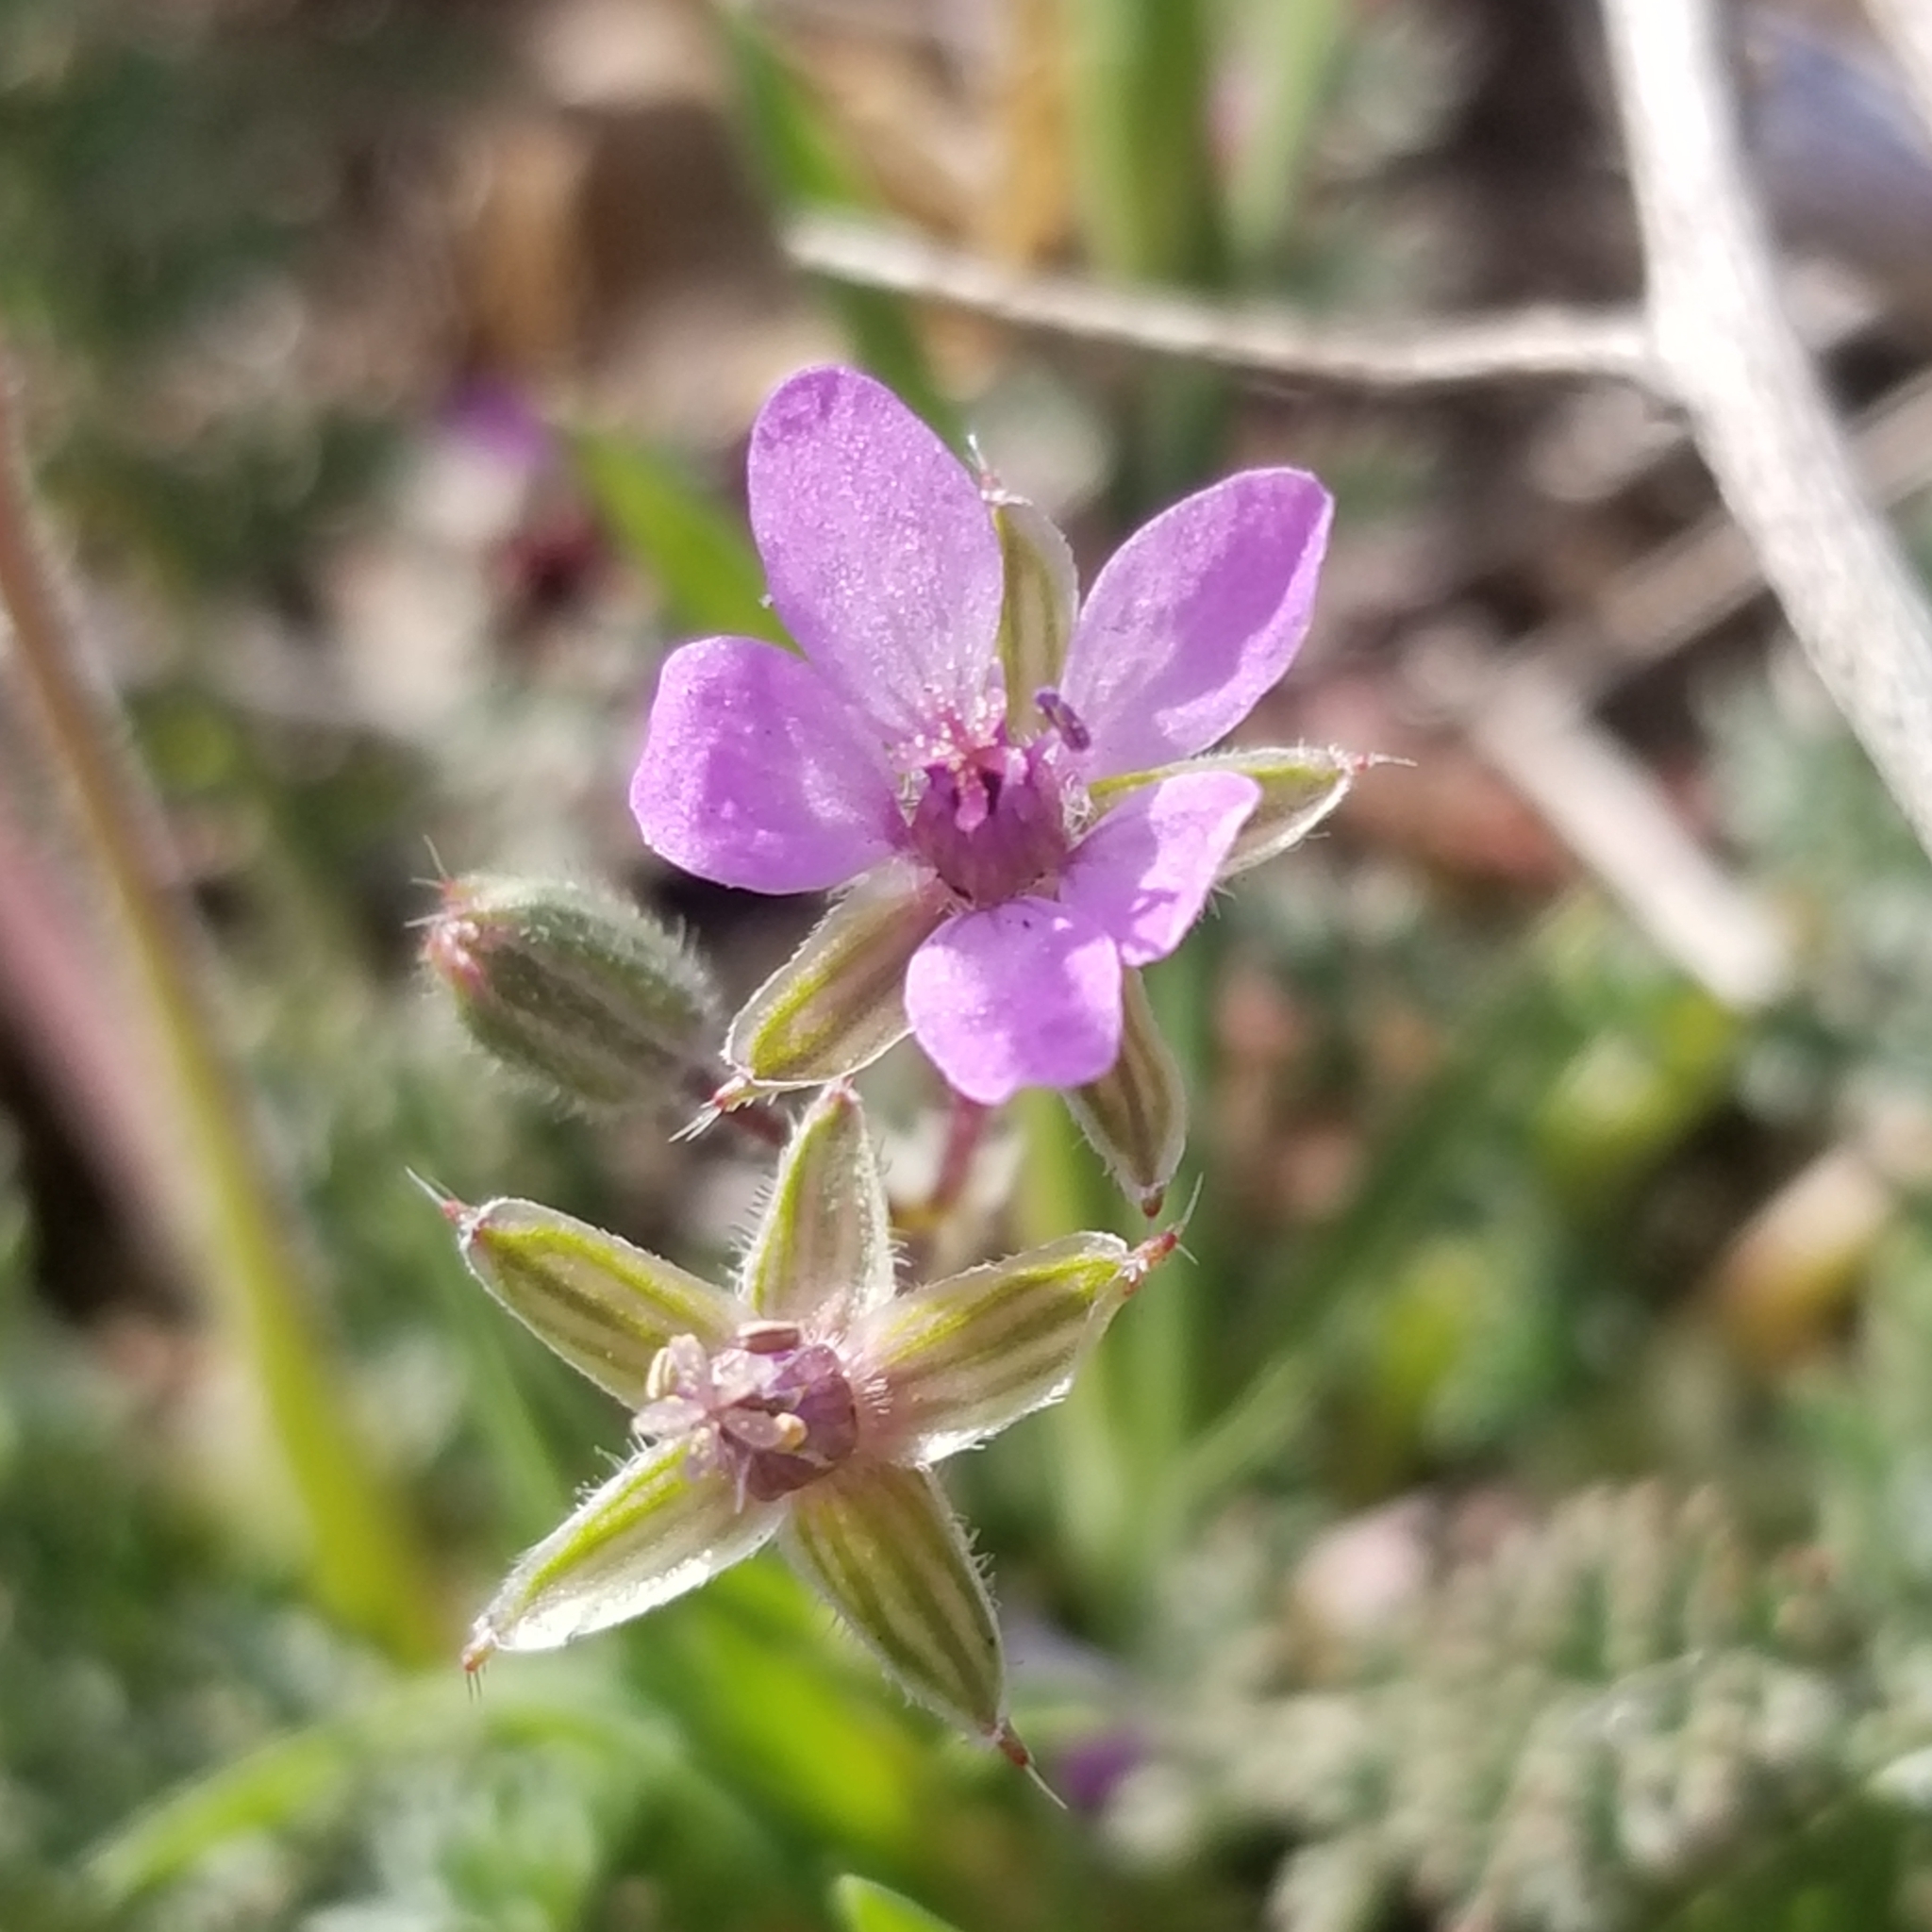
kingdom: Plantae
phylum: Tracheophyta
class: Magnoliopsida
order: Geraniales
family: Geraniaceae
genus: Erodium
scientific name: Erodium cicutarium
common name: Common stork's-bill
